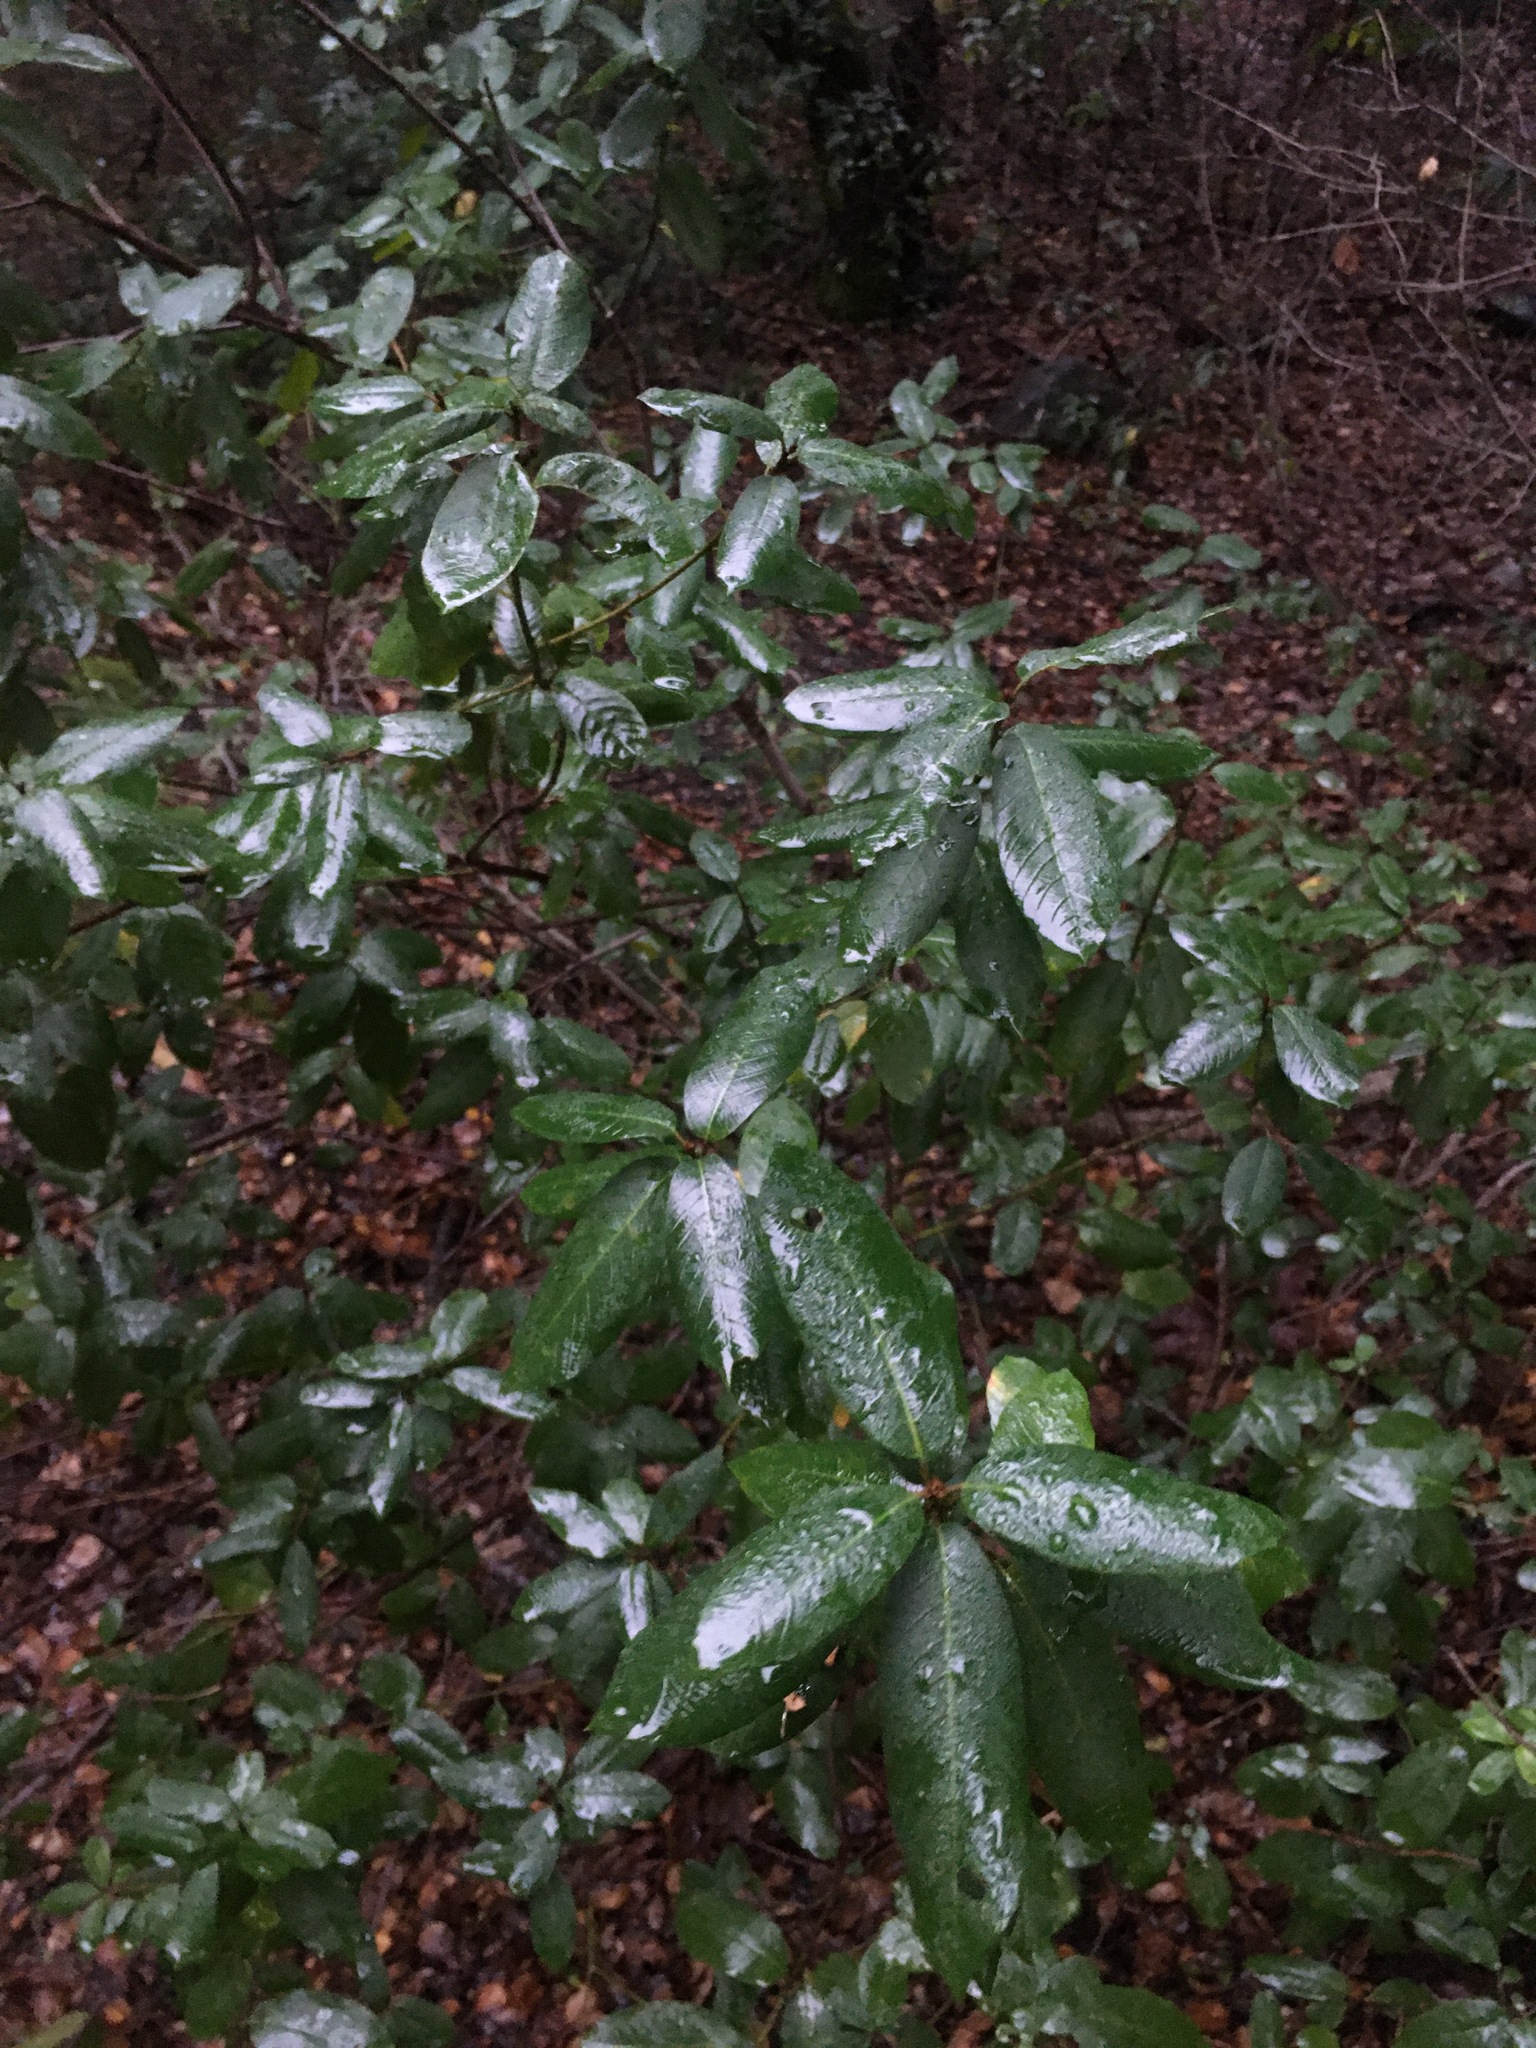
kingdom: Plantae
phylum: Tracheophyta
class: Magnoliopsida
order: Rosales
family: Rhamnaceae
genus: Frangula
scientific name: Frangula californica
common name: California buckthorn
